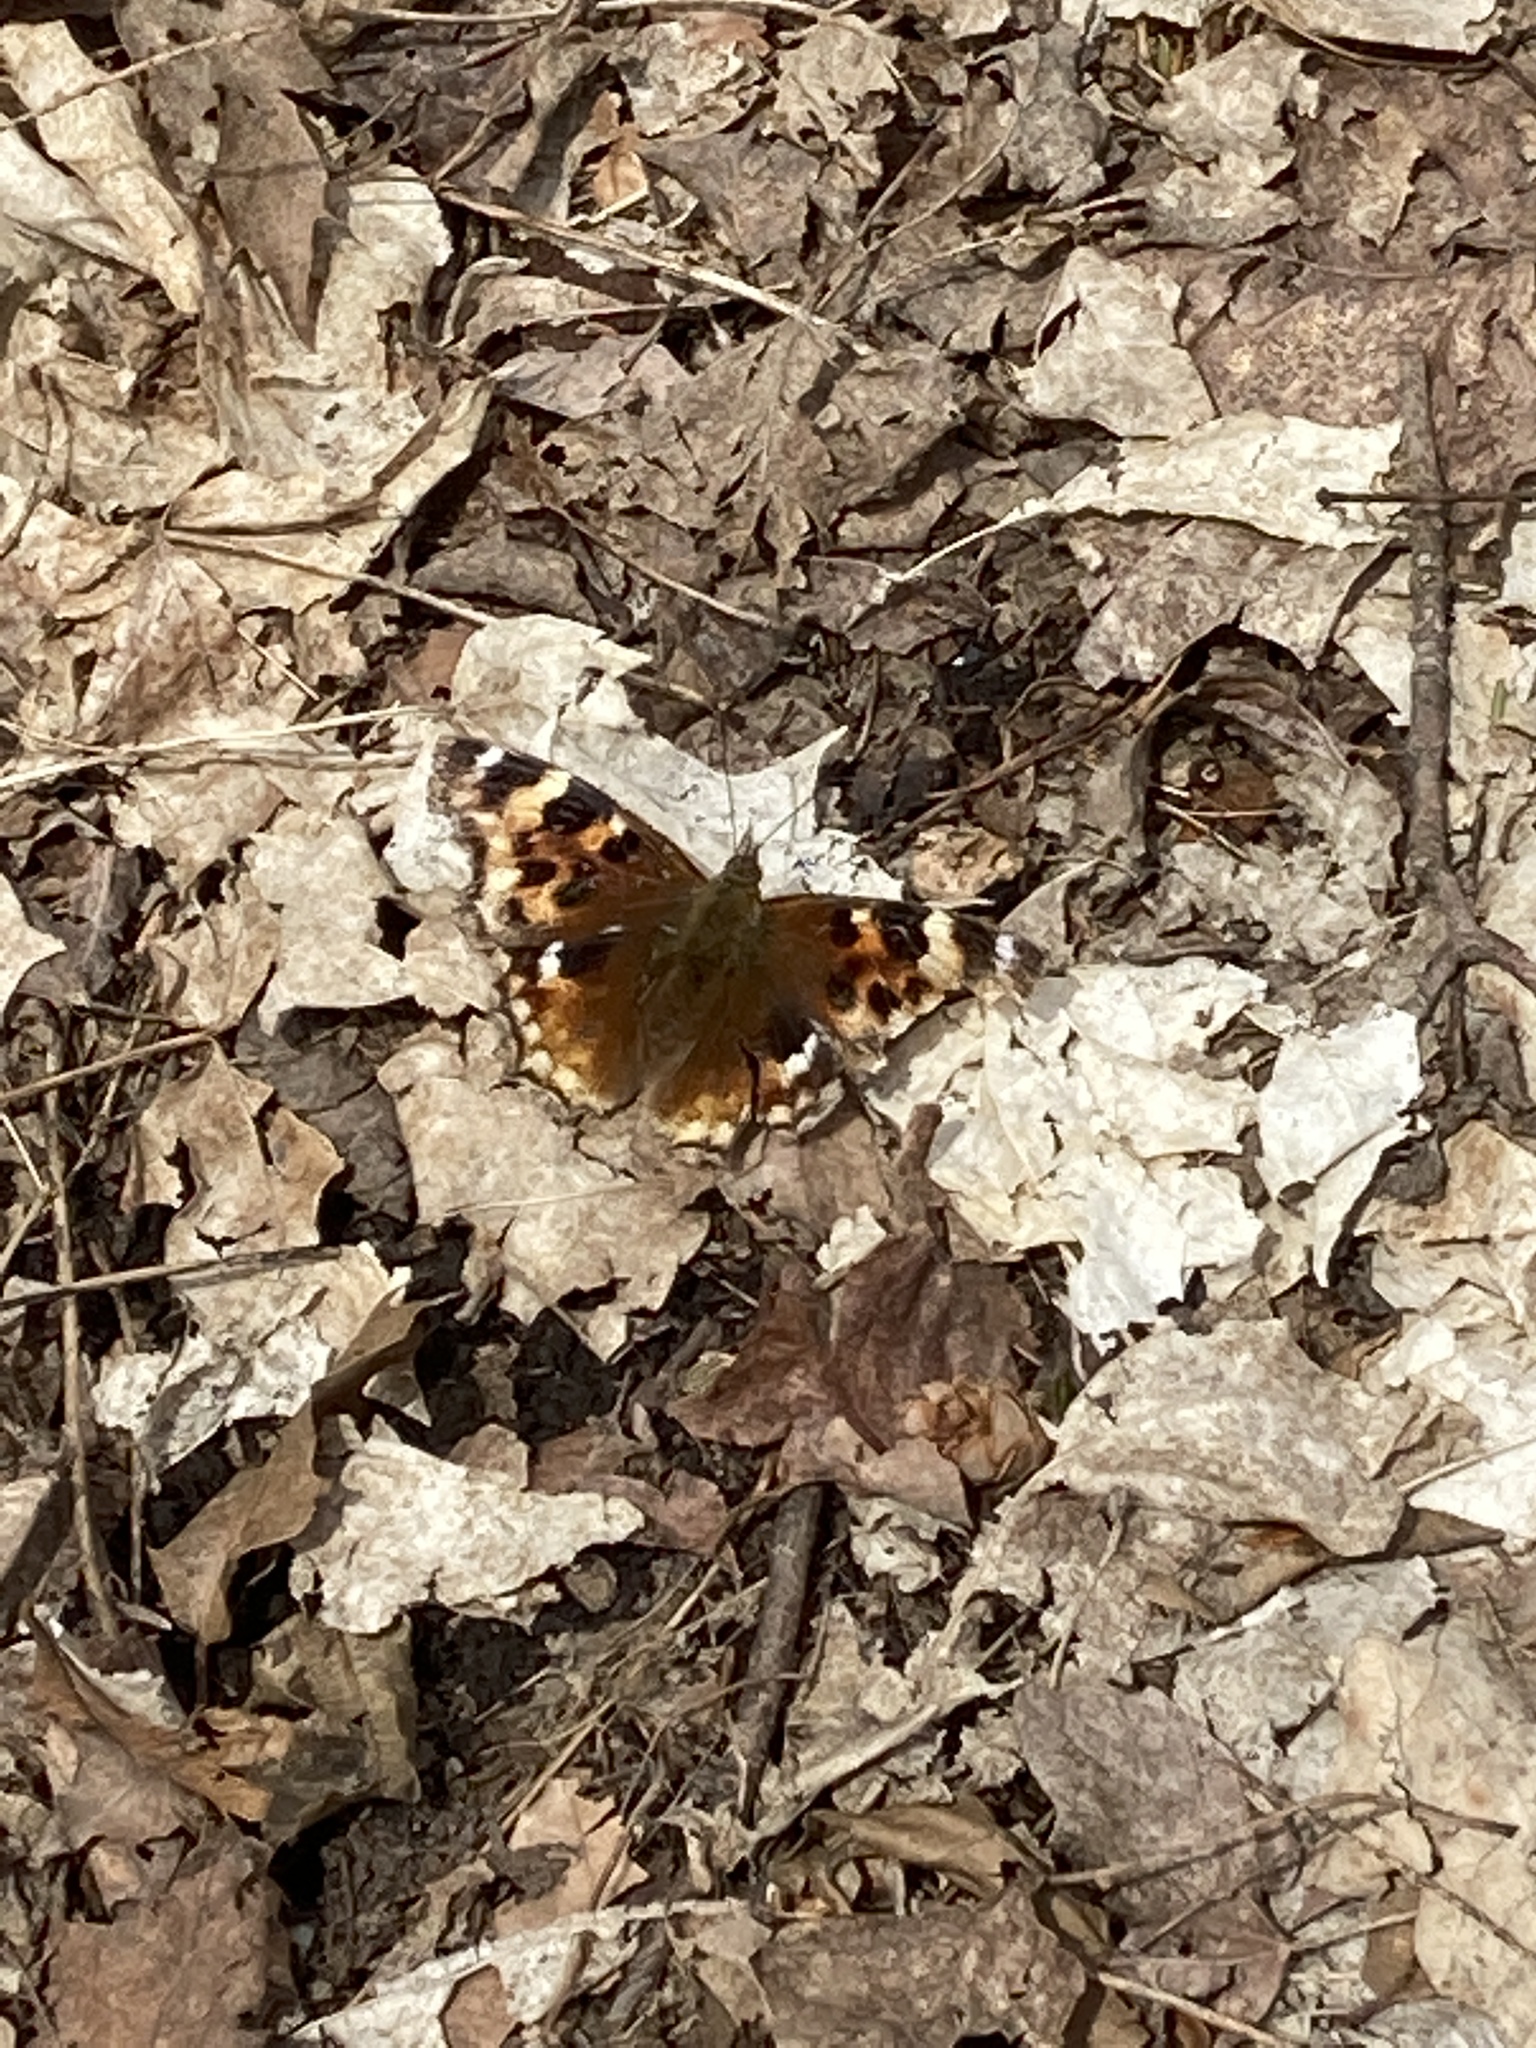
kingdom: Animalia
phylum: Arthropoda
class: Insecta
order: Lepidoptera
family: Nymphalidae
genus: Polygonia
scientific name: Polygonia vaualbum
